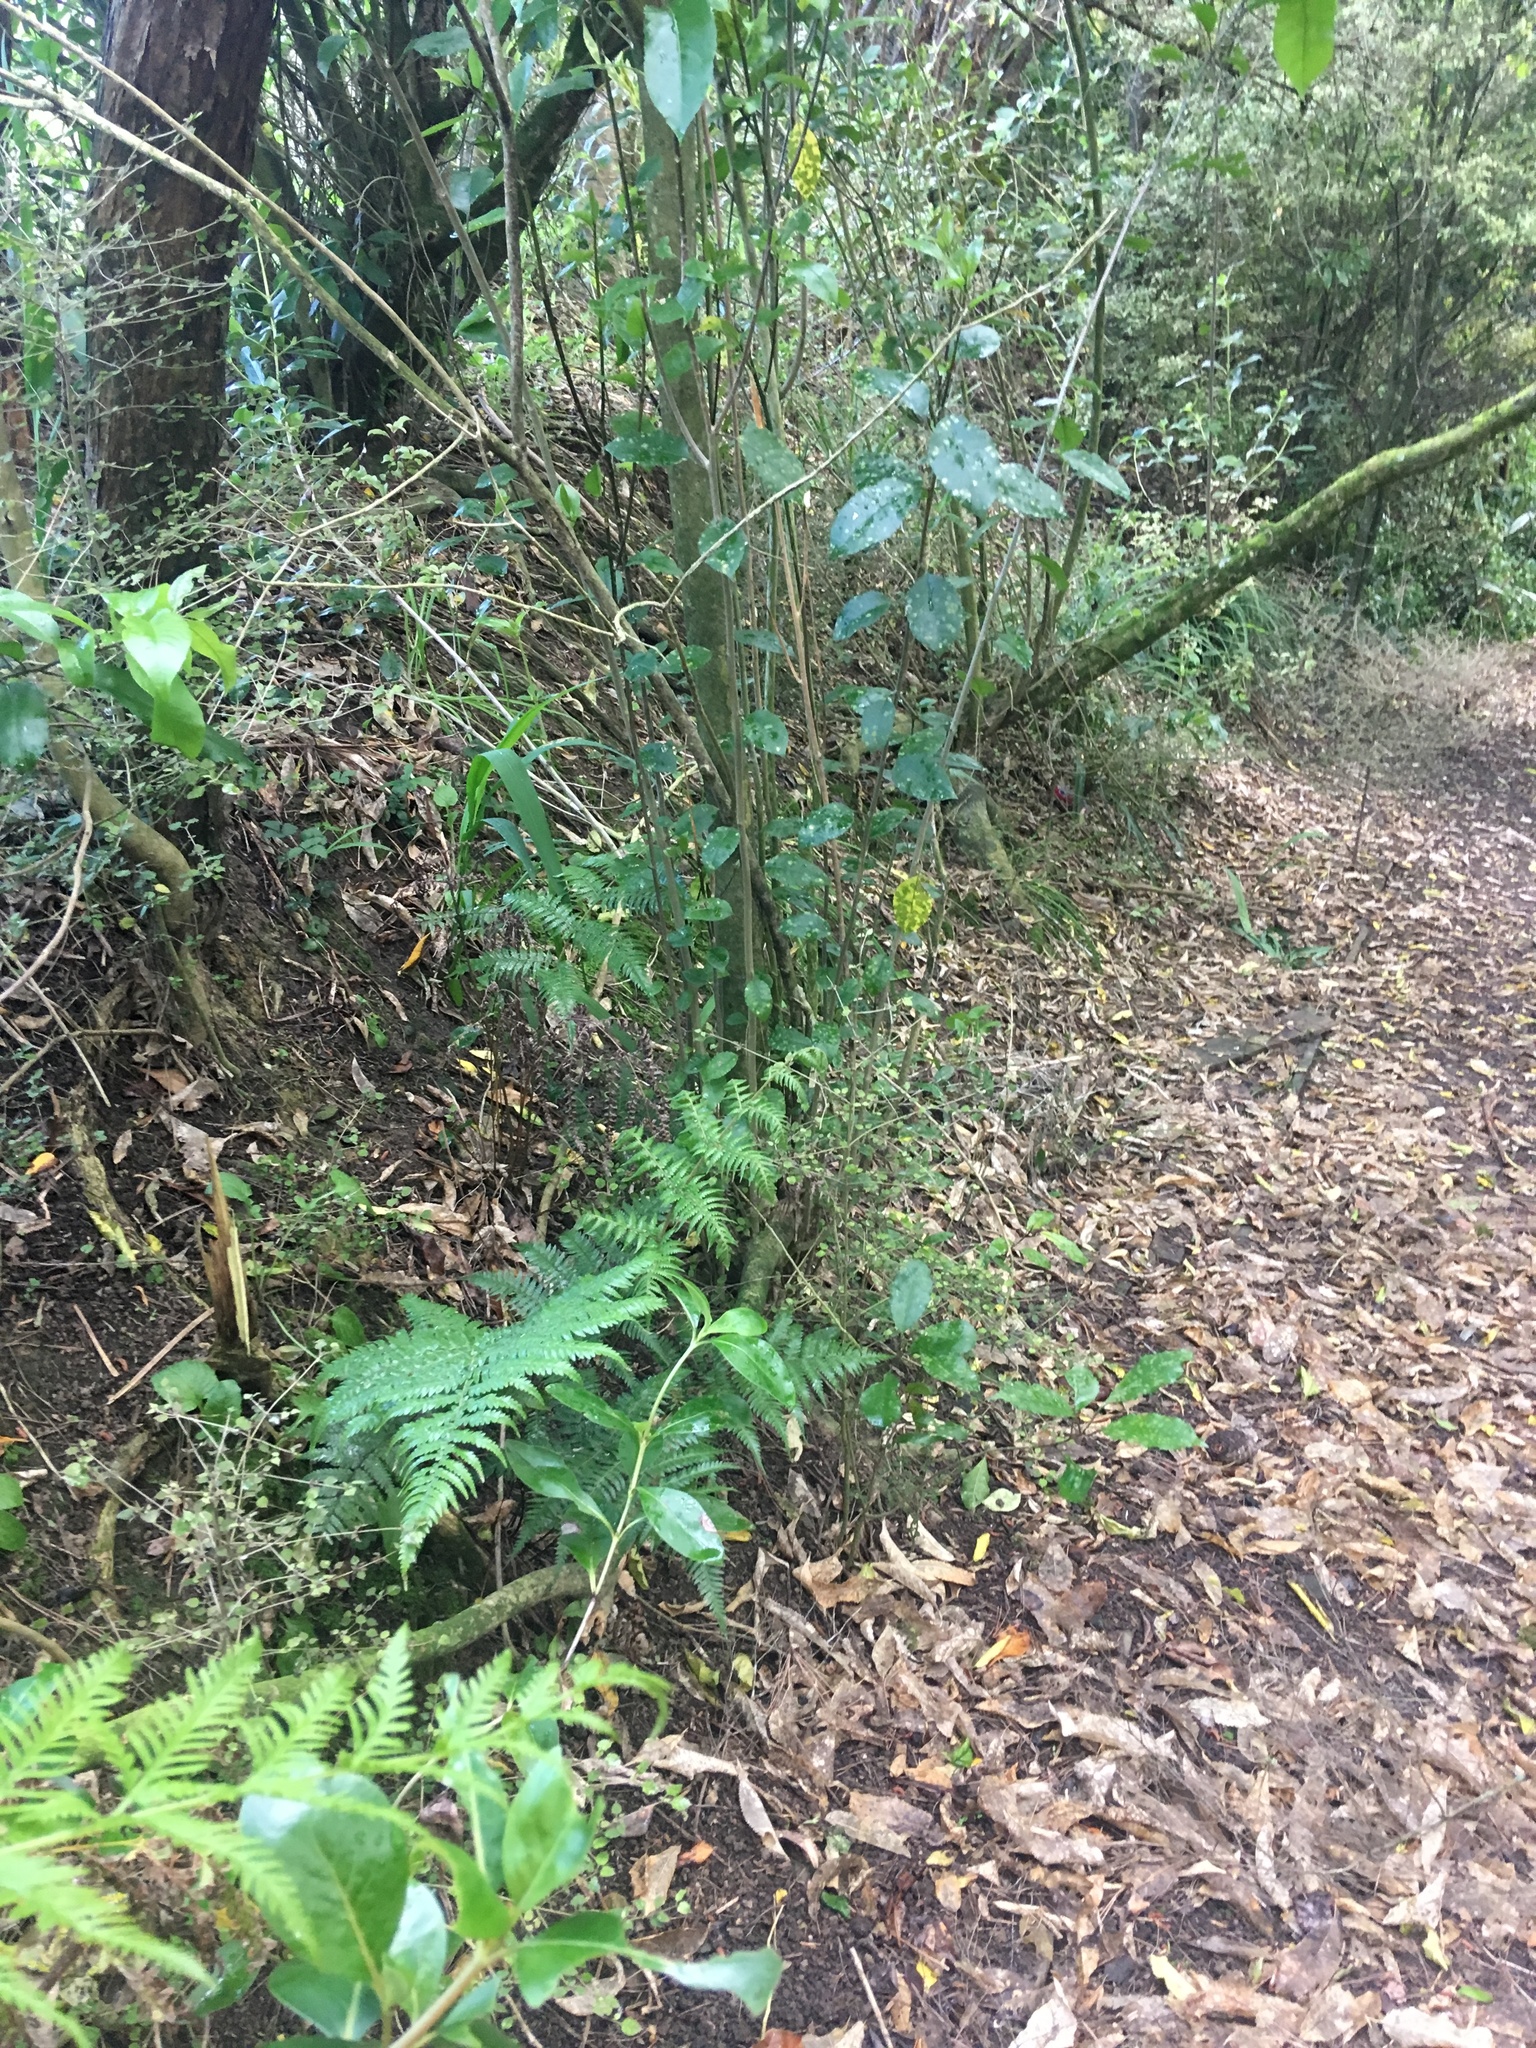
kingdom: Plantae
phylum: Tracheophyta
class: Magnoliopsida
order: Malpighiales
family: Violaceae
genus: Melicytus
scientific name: Melicytus ramiflorus
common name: Mahoe
